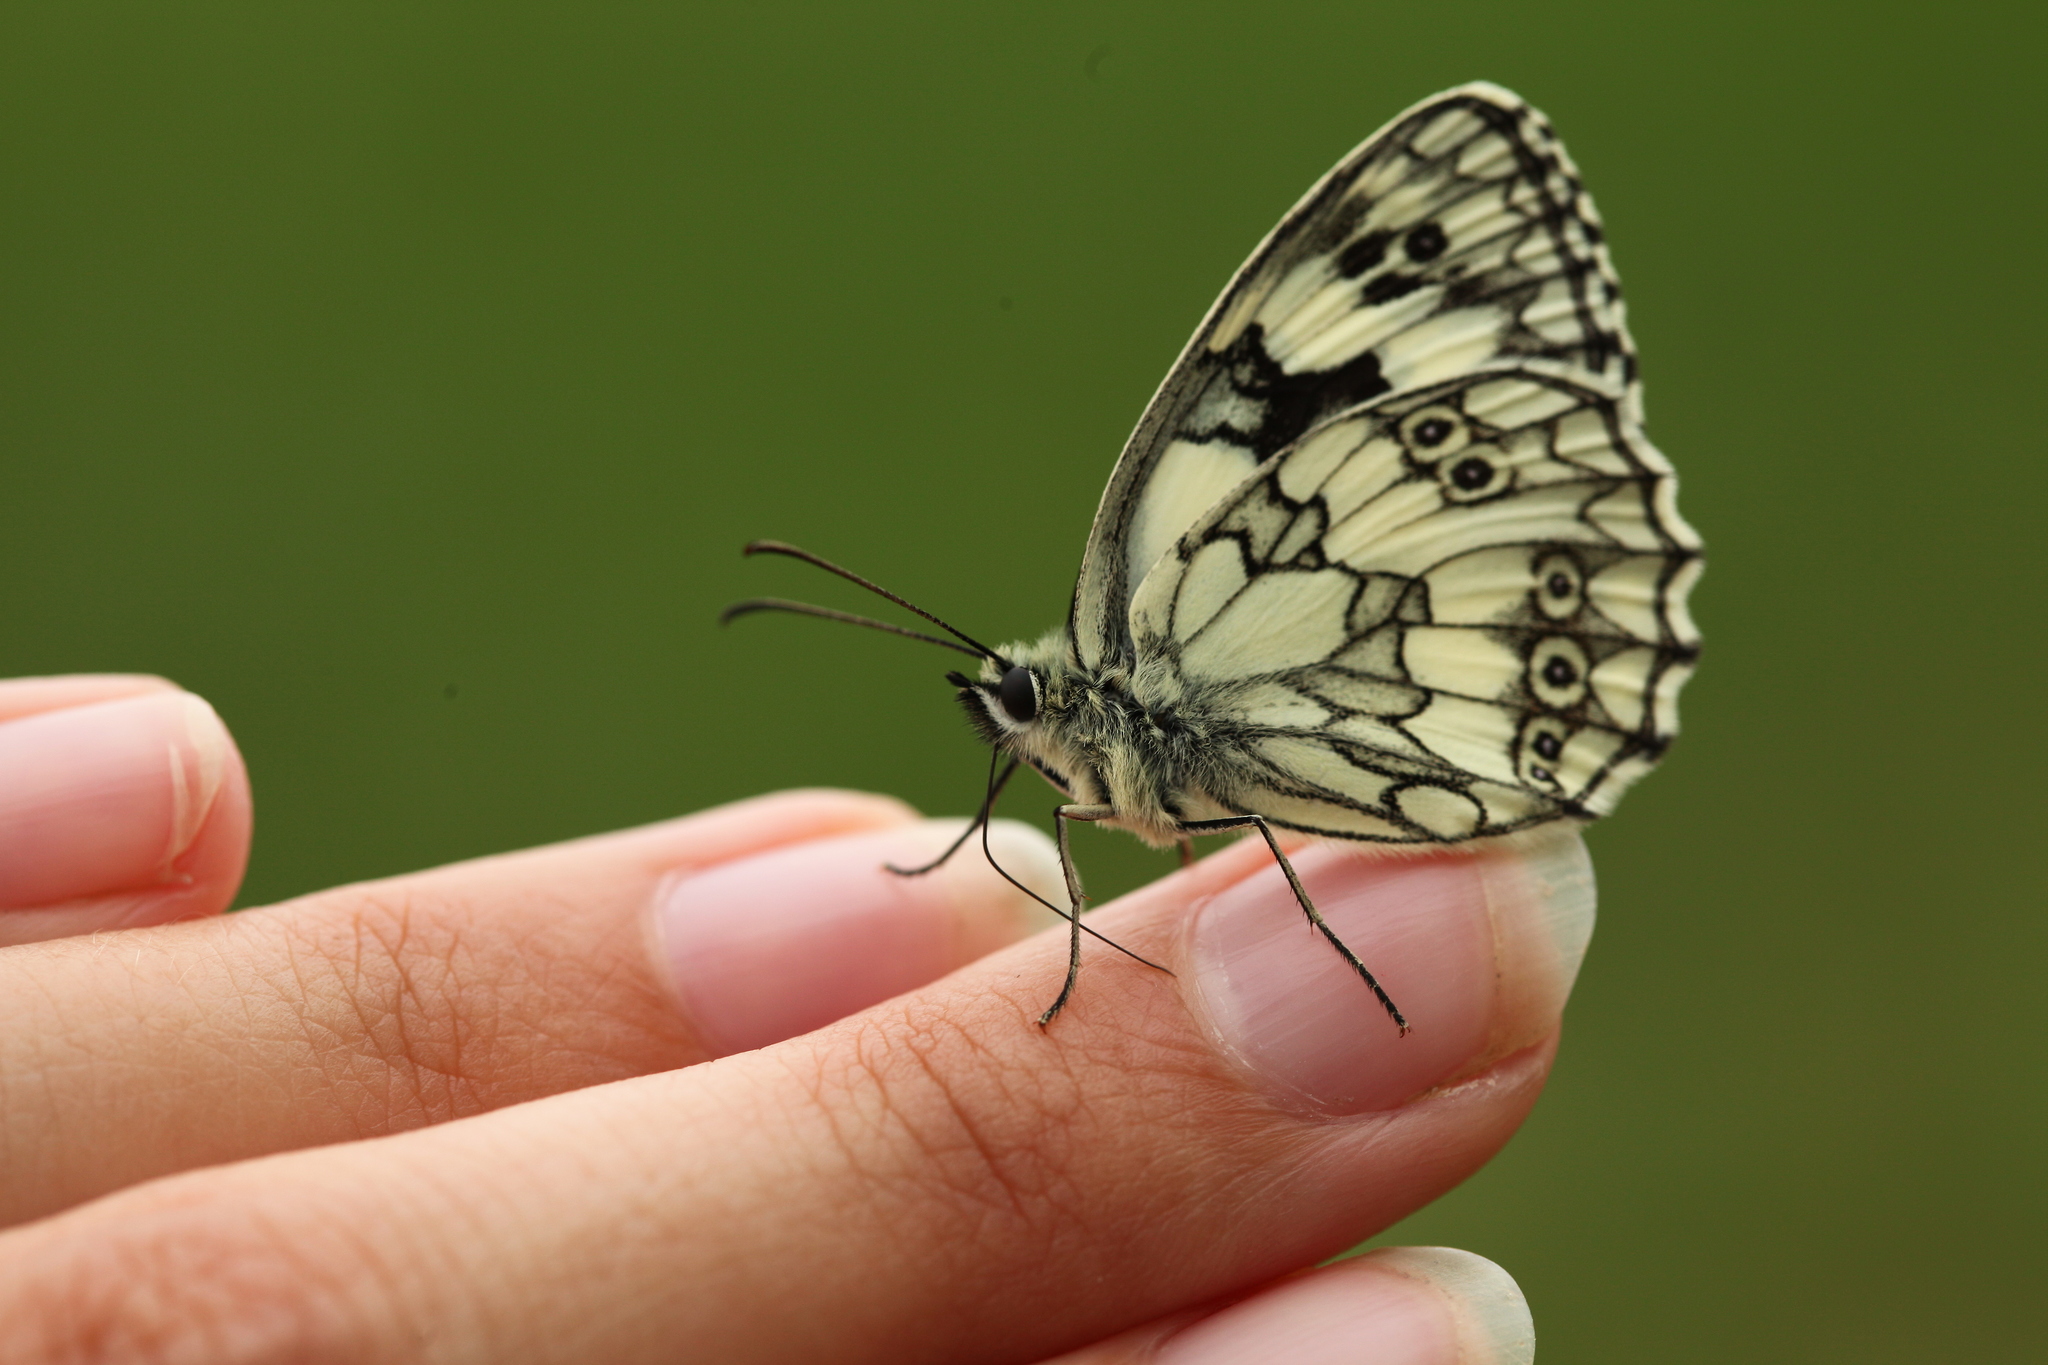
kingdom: Animalia
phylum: Arthropoda
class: Insecta
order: Lepidoptera
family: Nymphalidae
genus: Melanargia
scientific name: Melanargia galathea
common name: Marbled white
